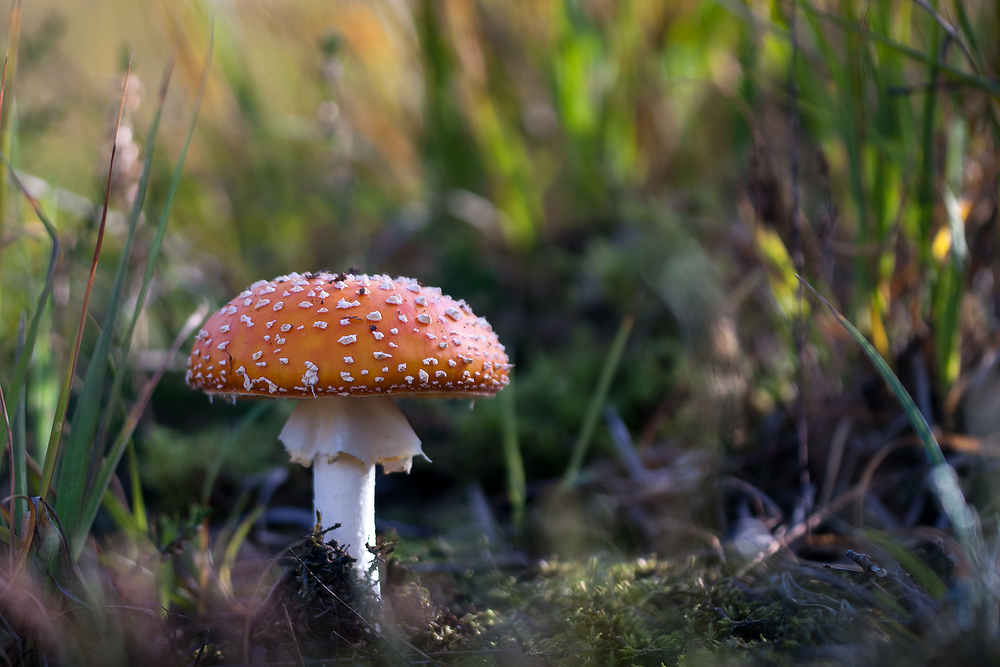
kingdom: Fungi
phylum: Basidiomycota
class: Agaricomycetes
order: Agaricales
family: Amanitaceae
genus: Amanita
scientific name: Amanita muscaria
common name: Fly agaric
